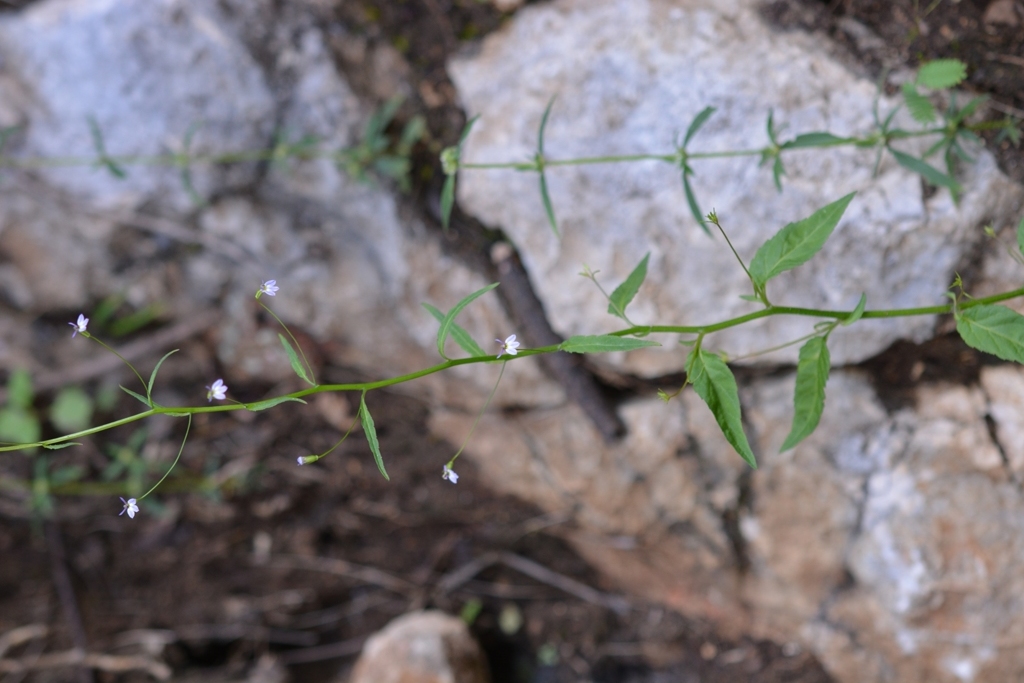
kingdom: Plantae
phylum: Tracheophyta
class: Magnoliopsida
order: Asterales
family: Campanulaceae
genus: Lobelia
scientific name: Lobelia longicaulis
